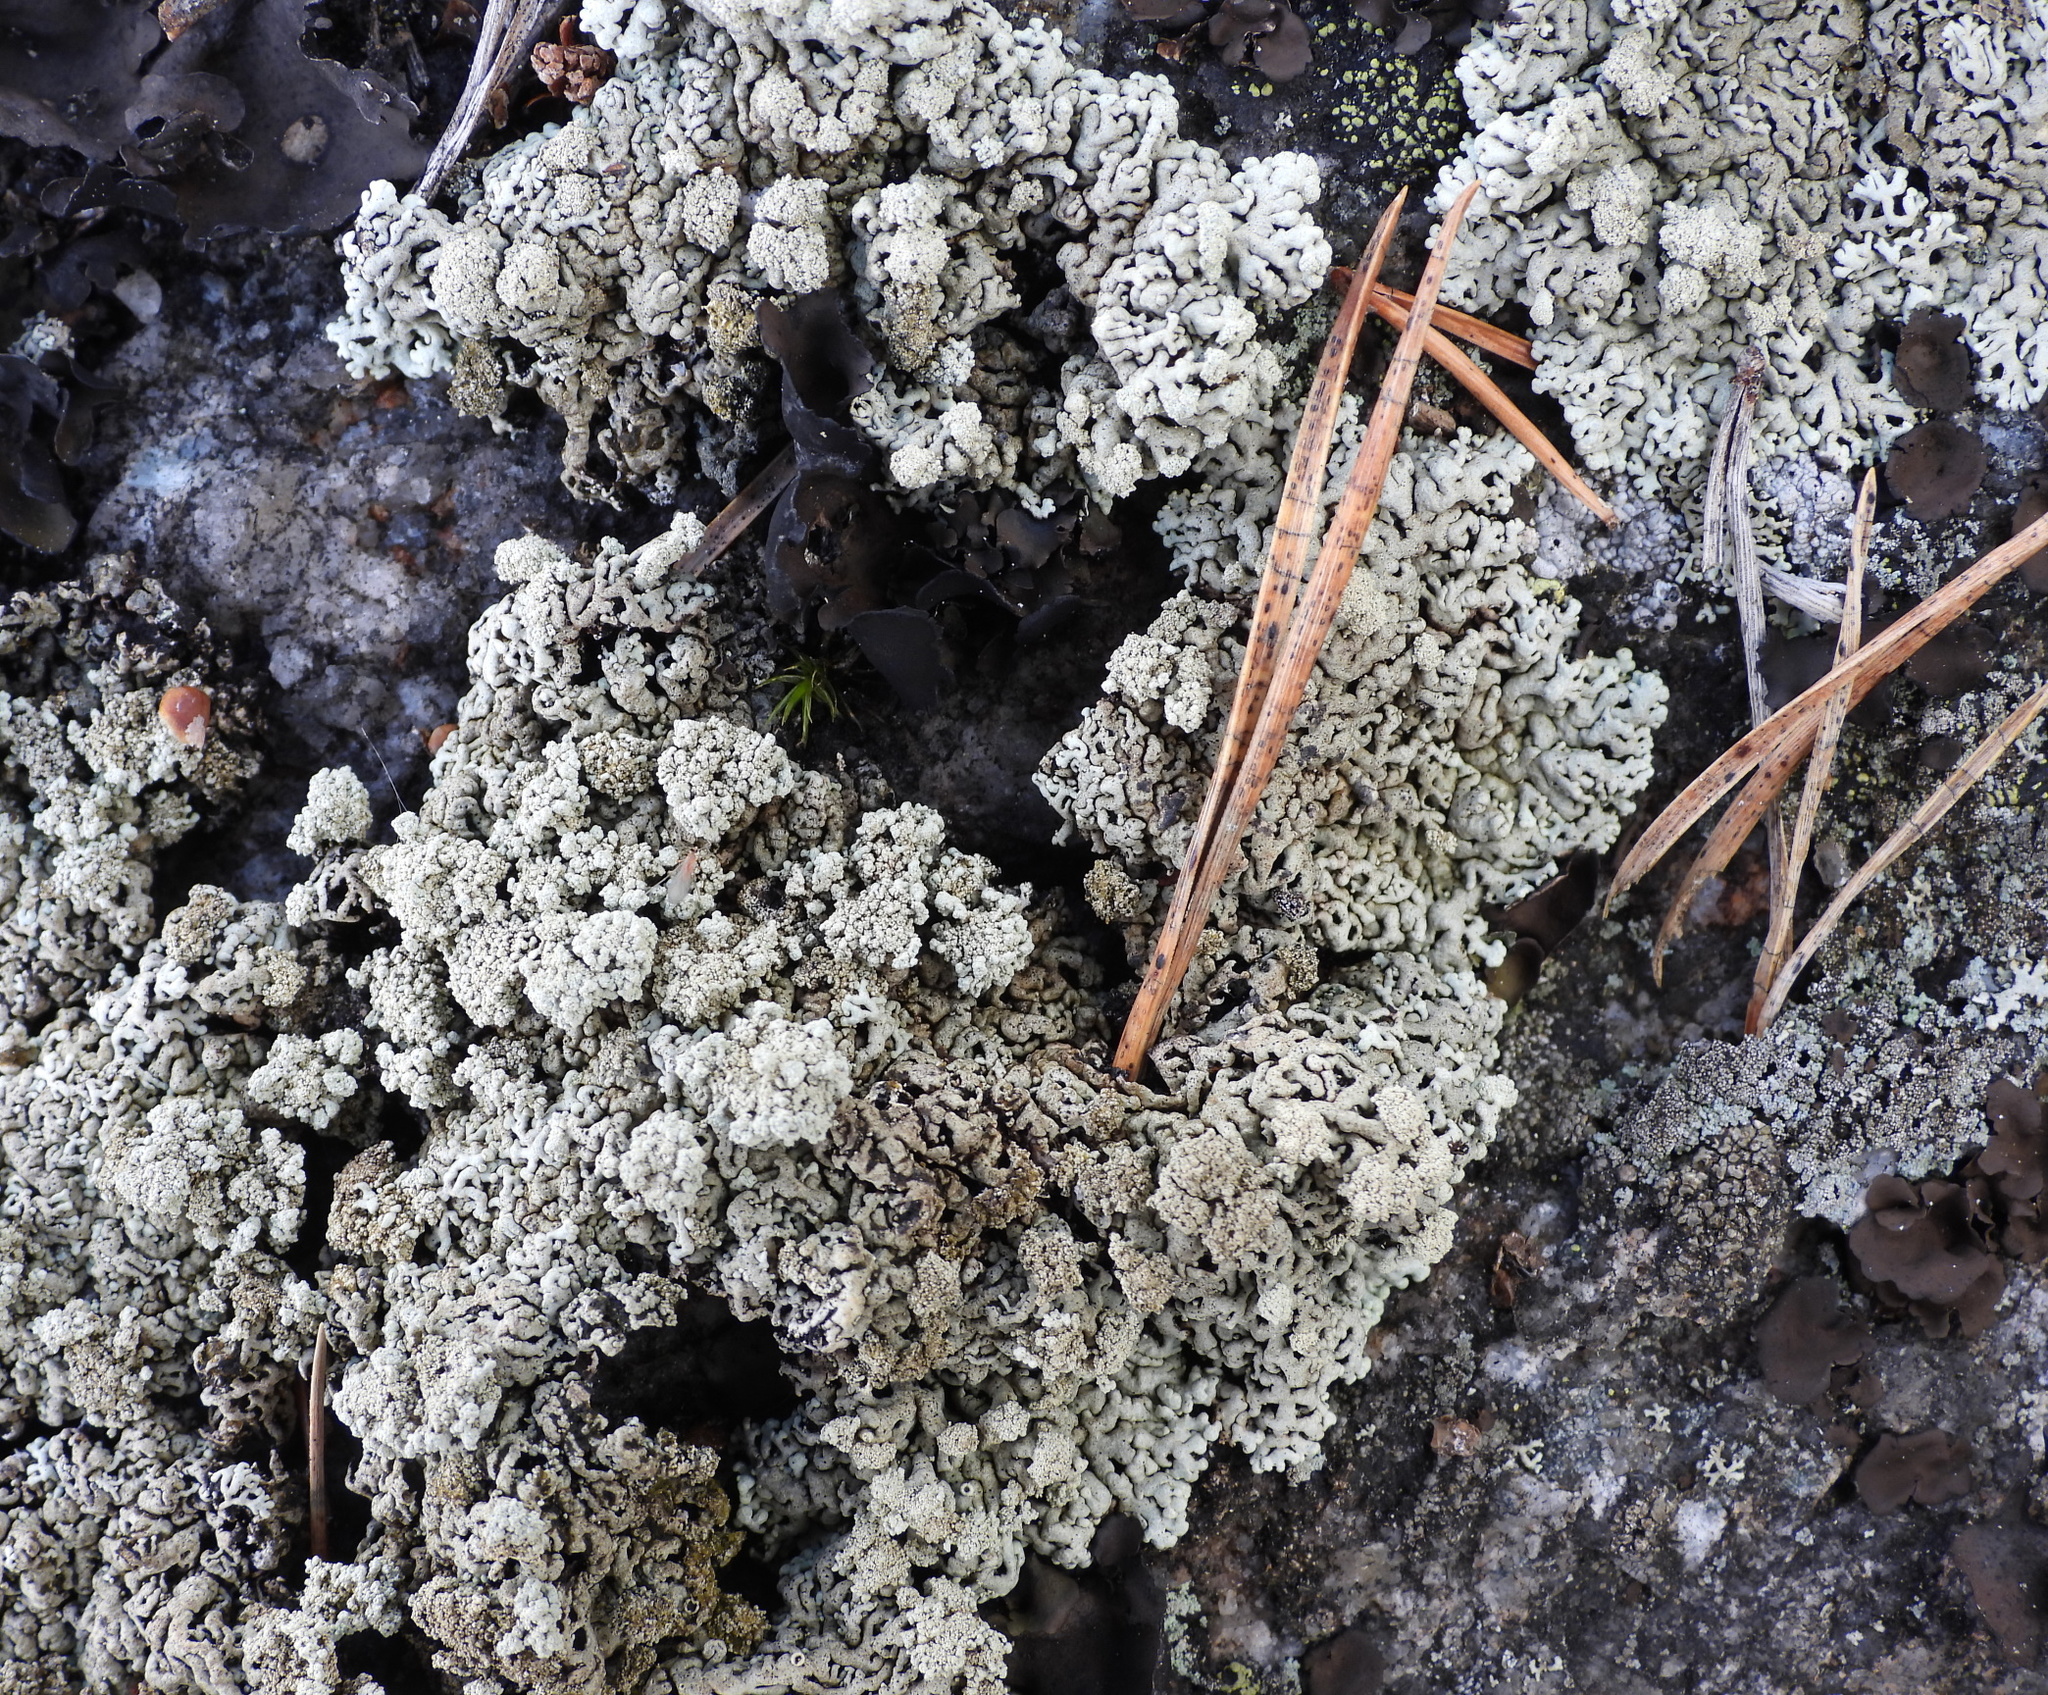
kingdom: Fungi
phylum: Ascomycota
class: Lecanoromycetes
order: Lecanorales
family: Parmeliaceae
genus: Arctoparmelia
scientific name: Arctoparmelia incurva
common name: Bent ring lichen
